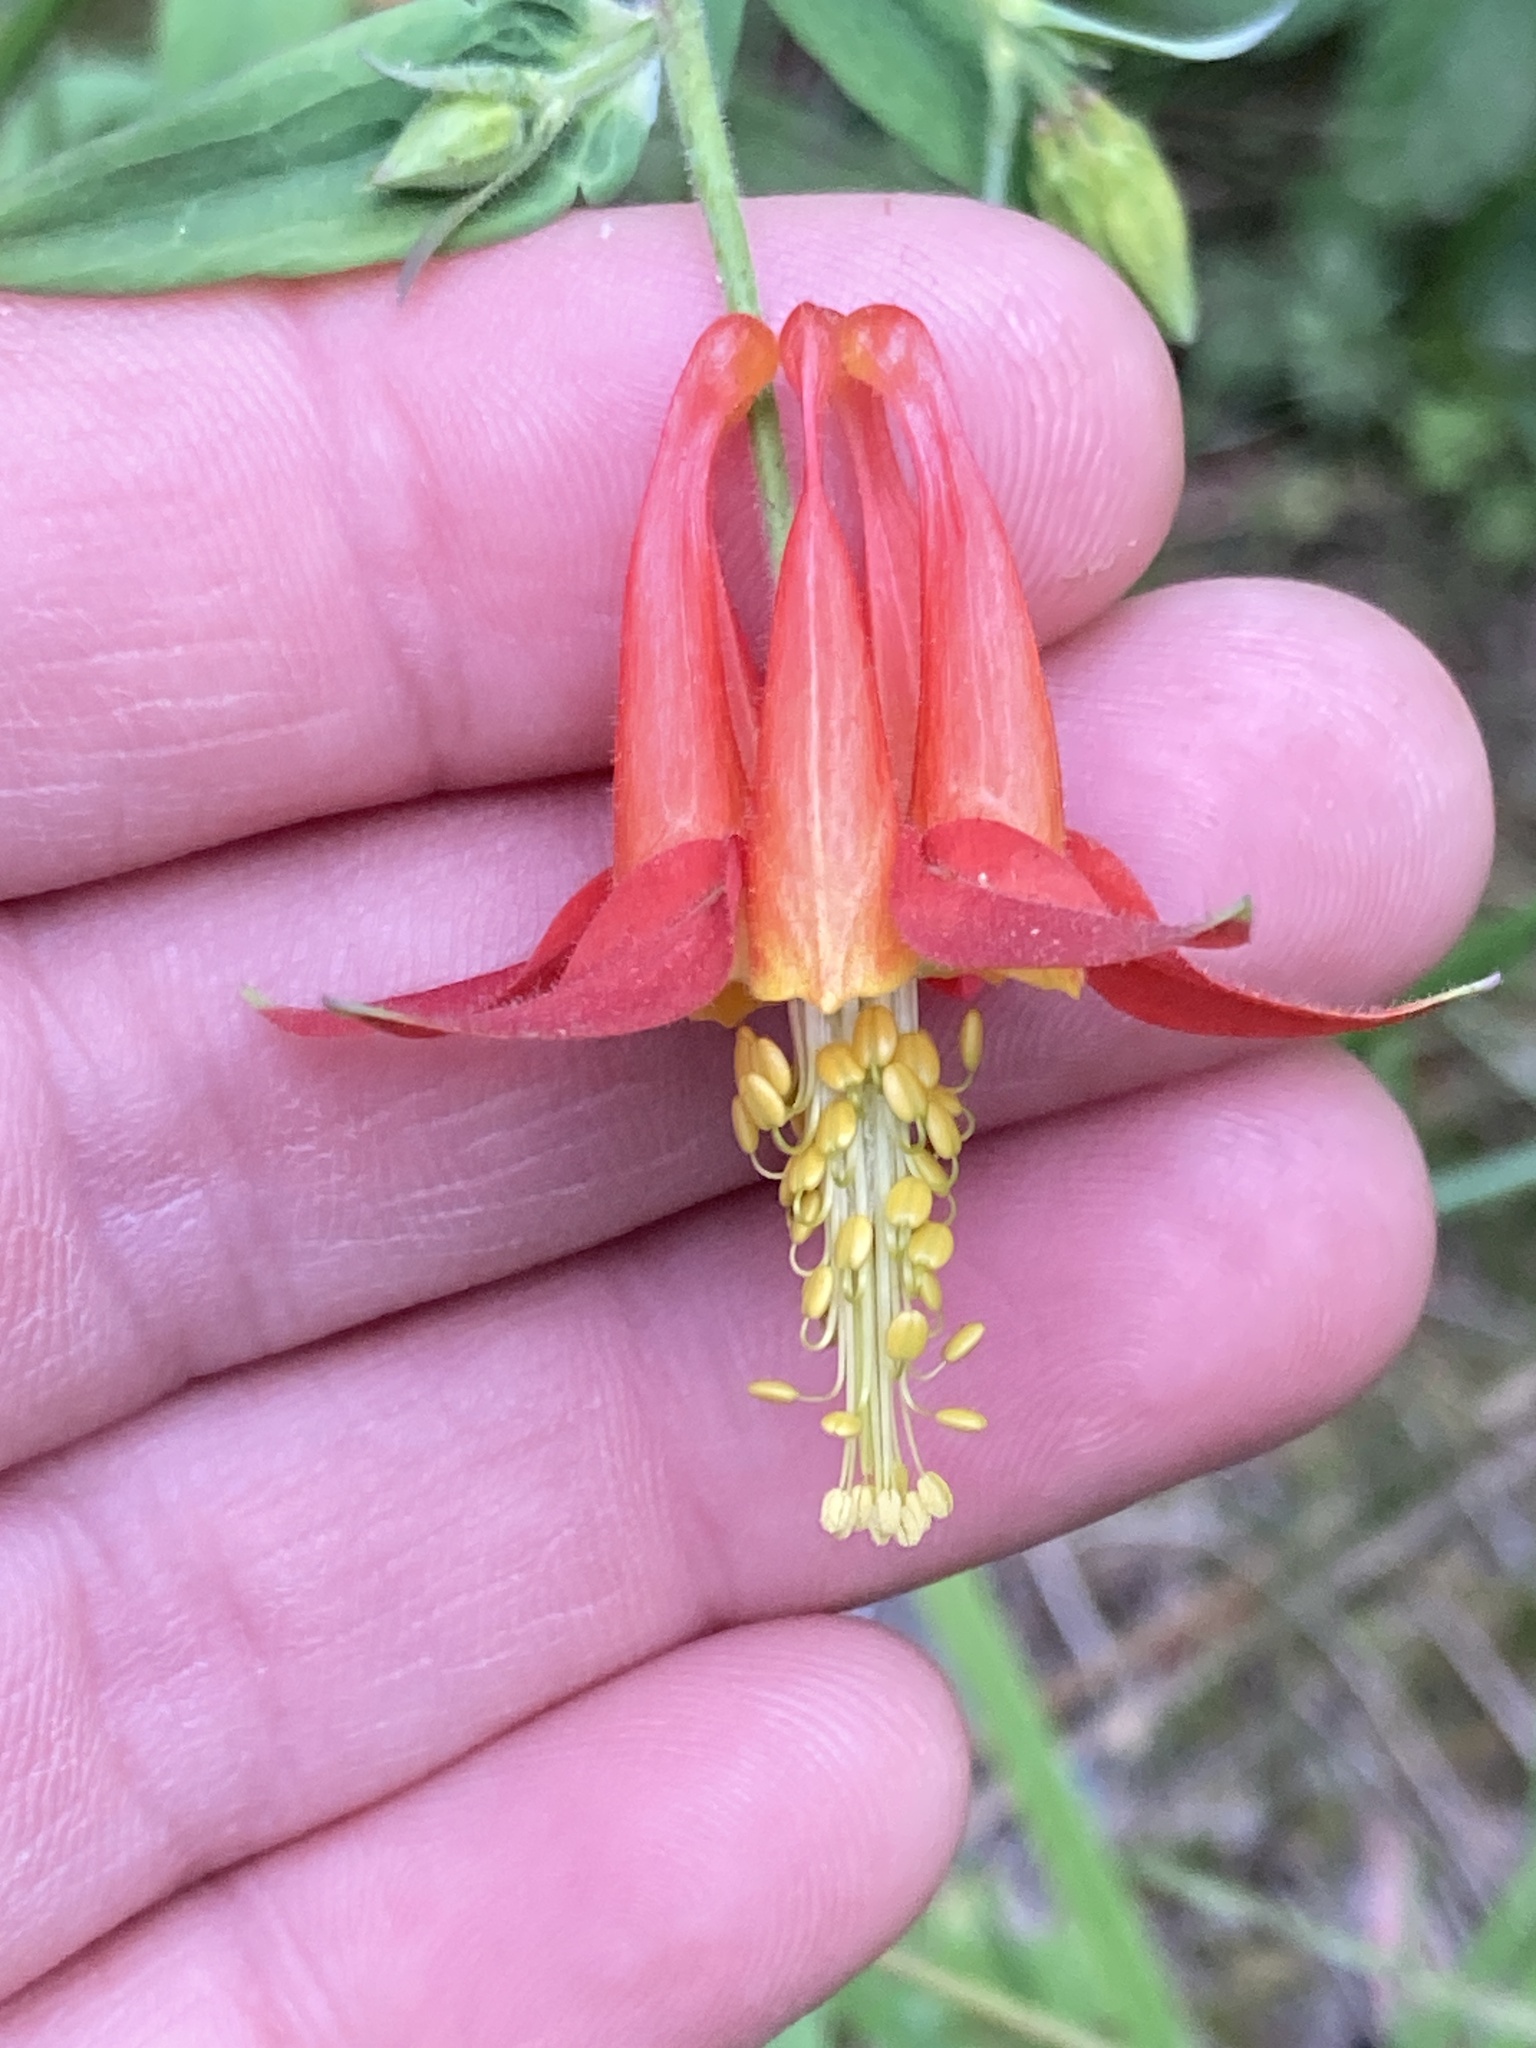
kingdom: Plantae
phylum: Tracheophyta
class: Magnoliopsida
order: Ranunculales
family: Ranunculaceae
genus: Aquilegia
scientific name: Aquilegia formosa
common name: Sitka columbine
